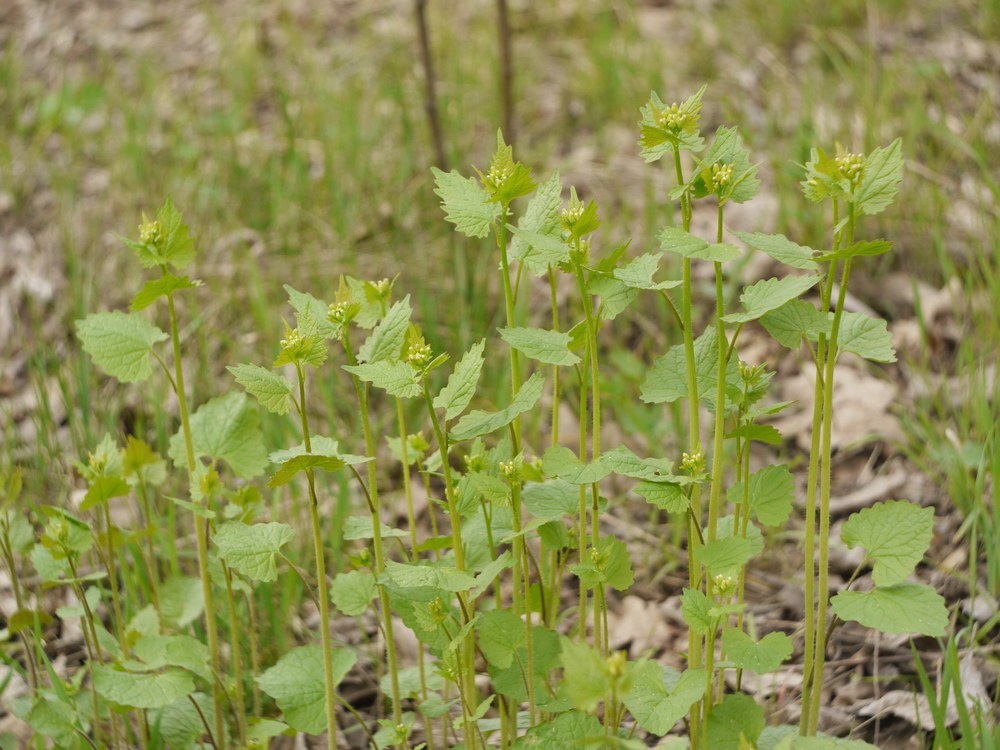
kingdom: Plantae
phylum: Tracheophyta
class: Magnoliopsida
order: Brassicales
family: Brassicaceae
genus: Alliaria
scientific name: Alliaria petiolata
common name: Garlic mustard
